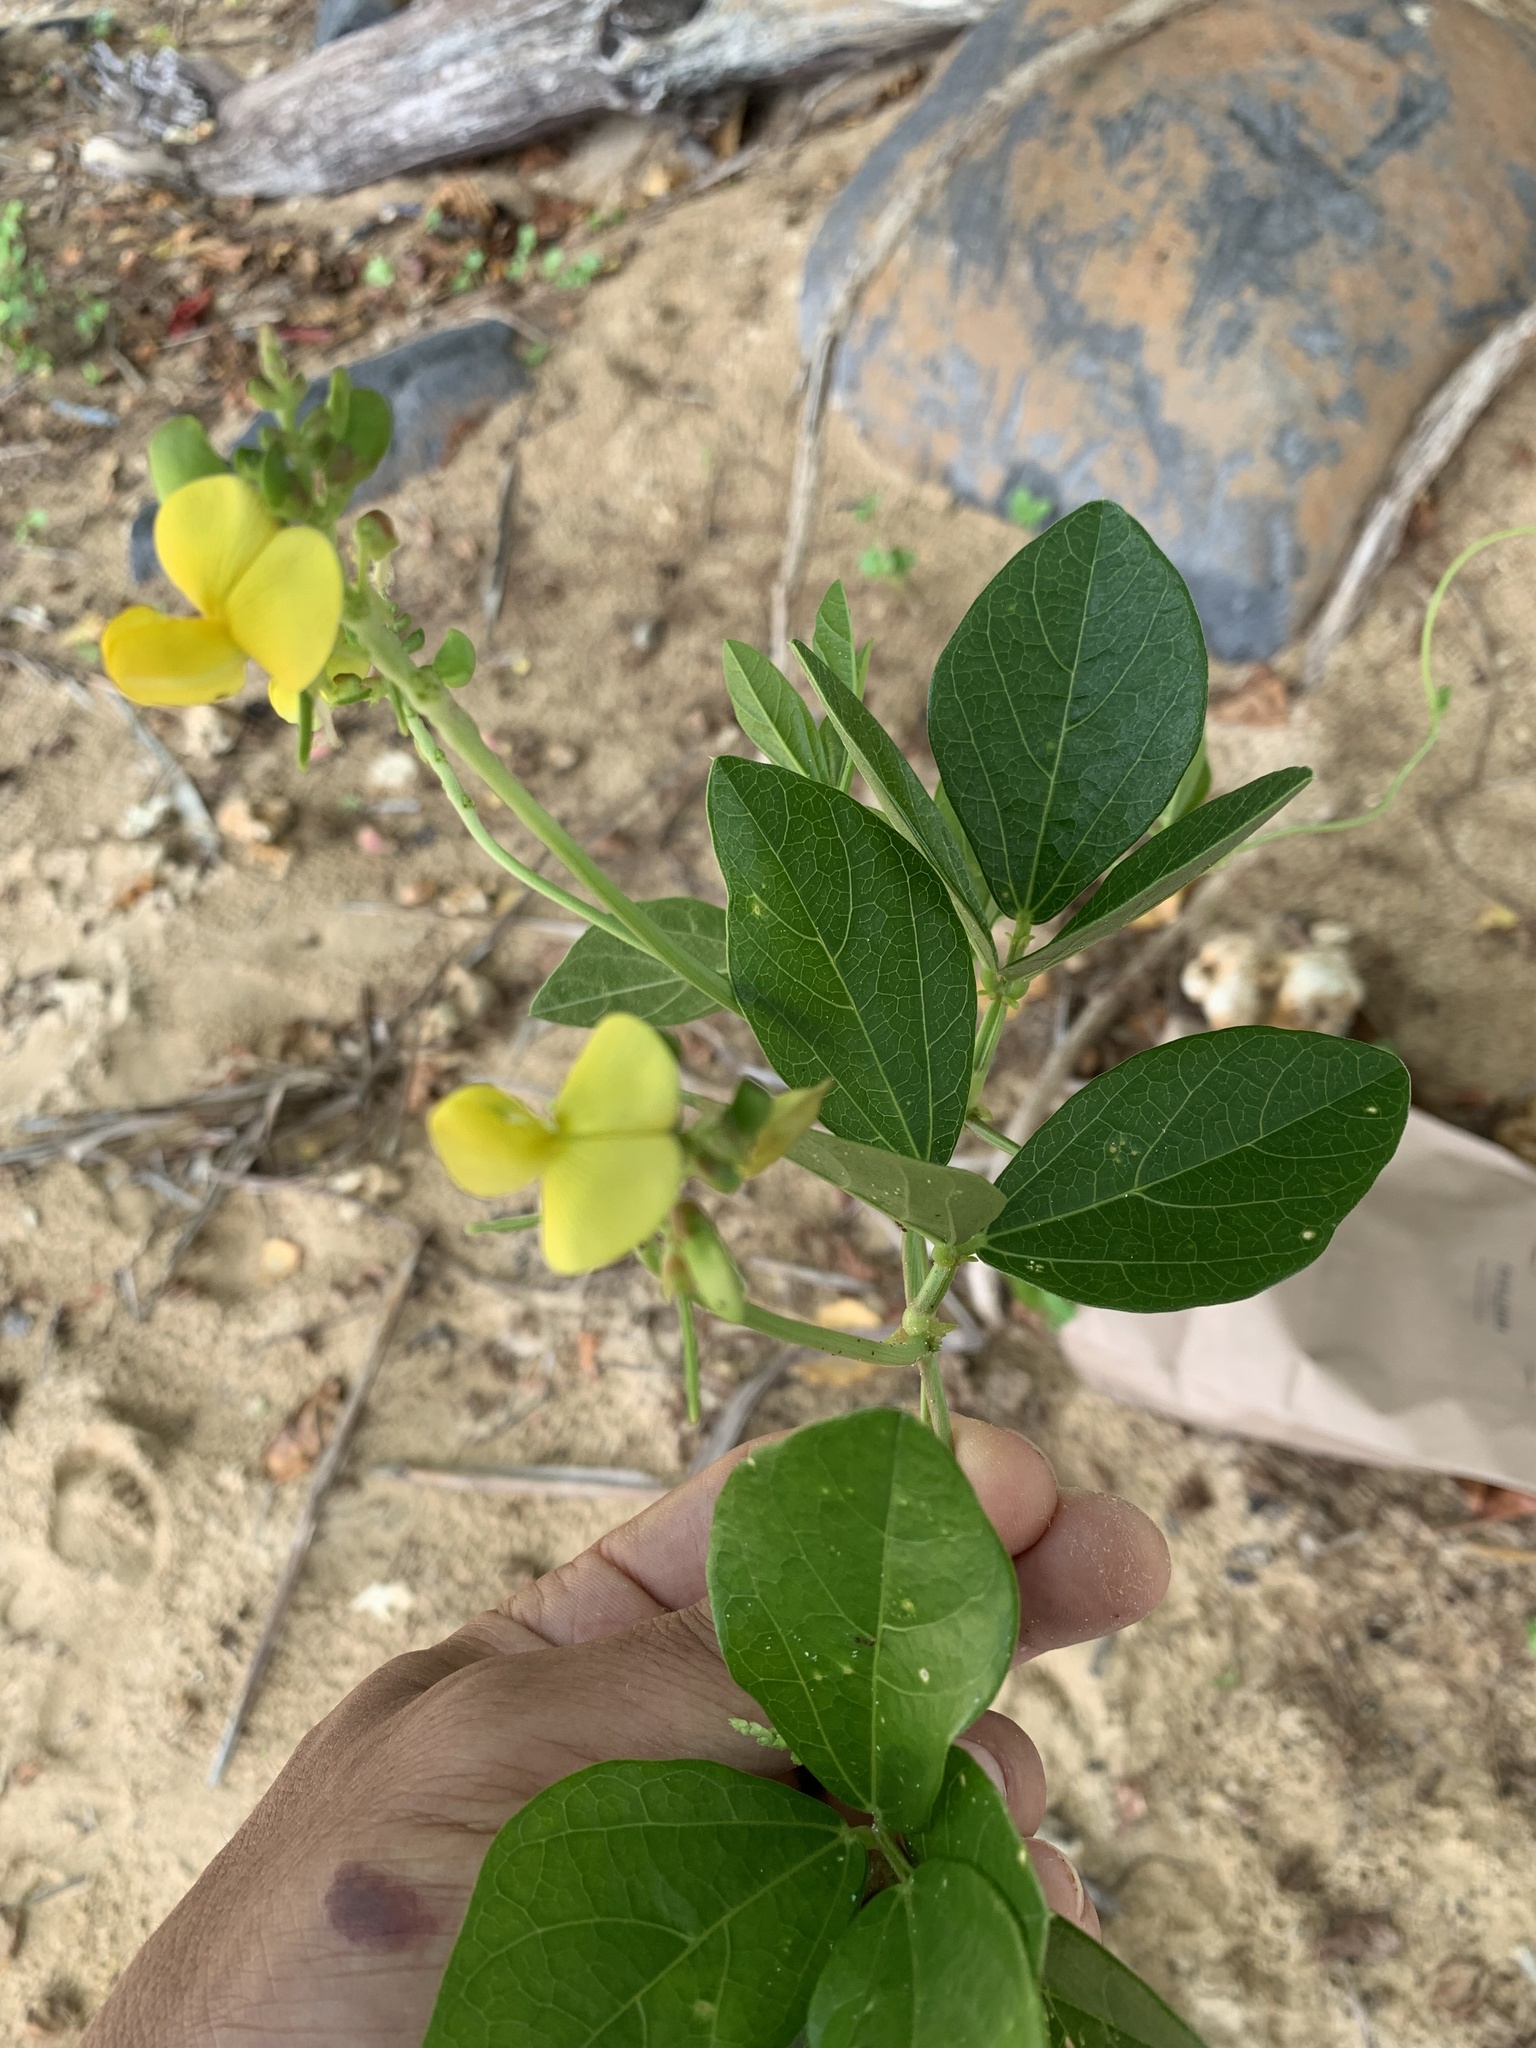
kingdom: Plantae
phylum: Tracheophyta
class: Magnoliopsida
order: Fabales
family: Fabaceae
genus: Vigna
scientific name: Vigna marina
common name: Dune-bean
